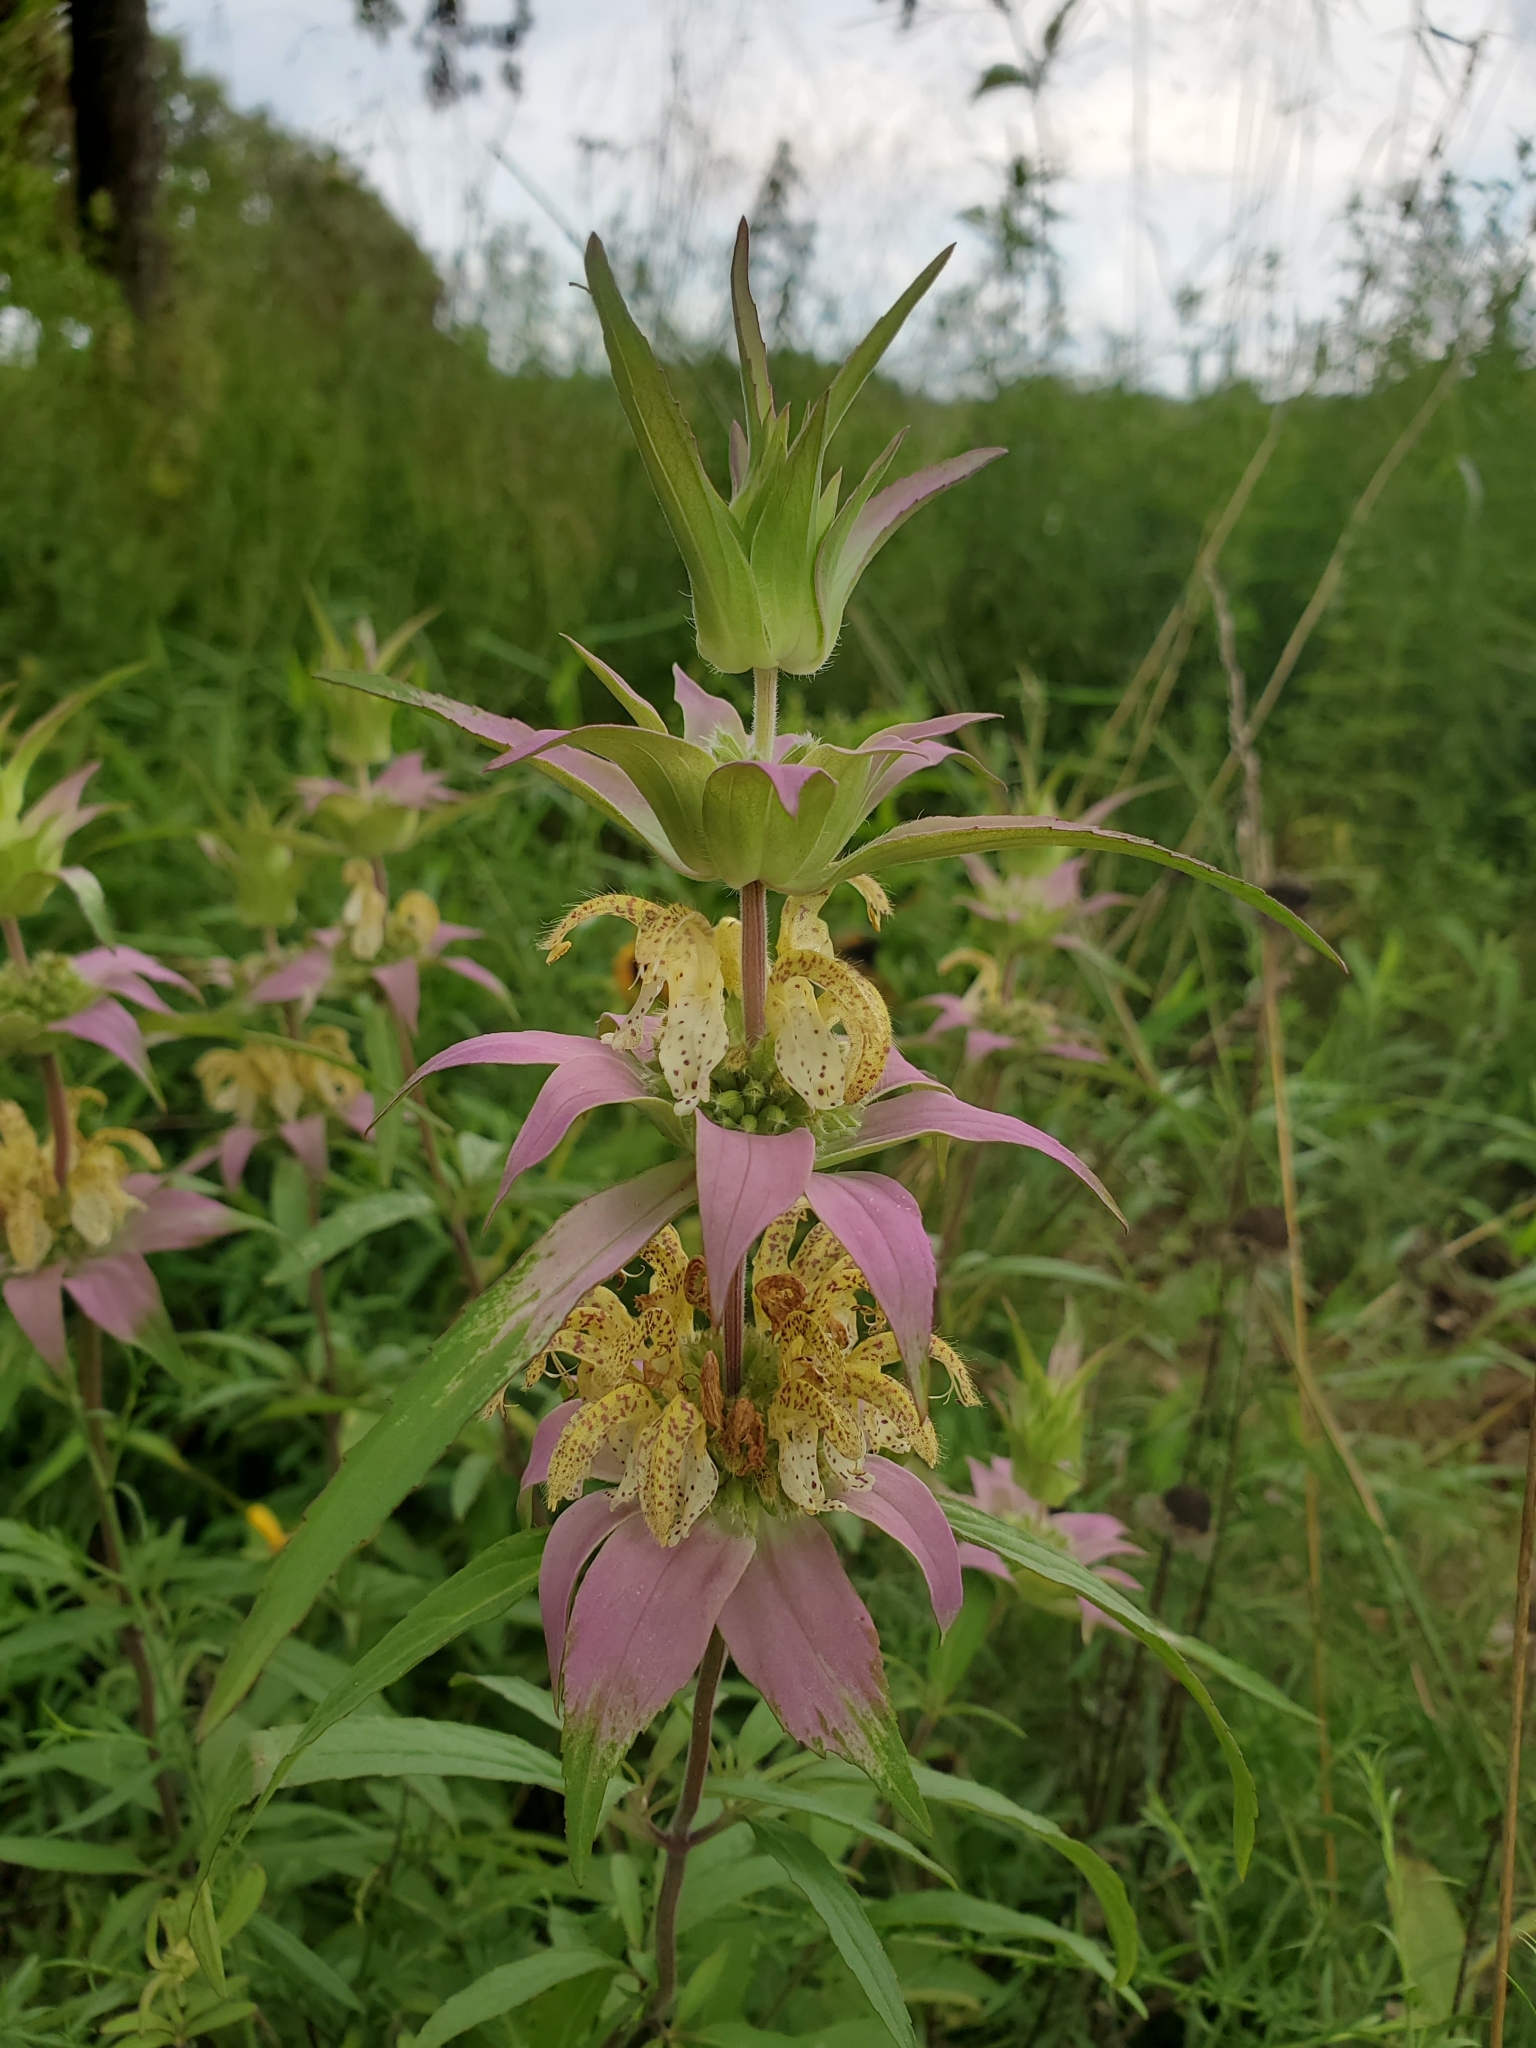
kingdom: Plantae
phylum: Tracheophyta
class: Magnoliopsida
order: Lamiales
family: Lamiaceae
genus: Monarda
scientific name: Monarda punctata
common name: Dotted monarda
